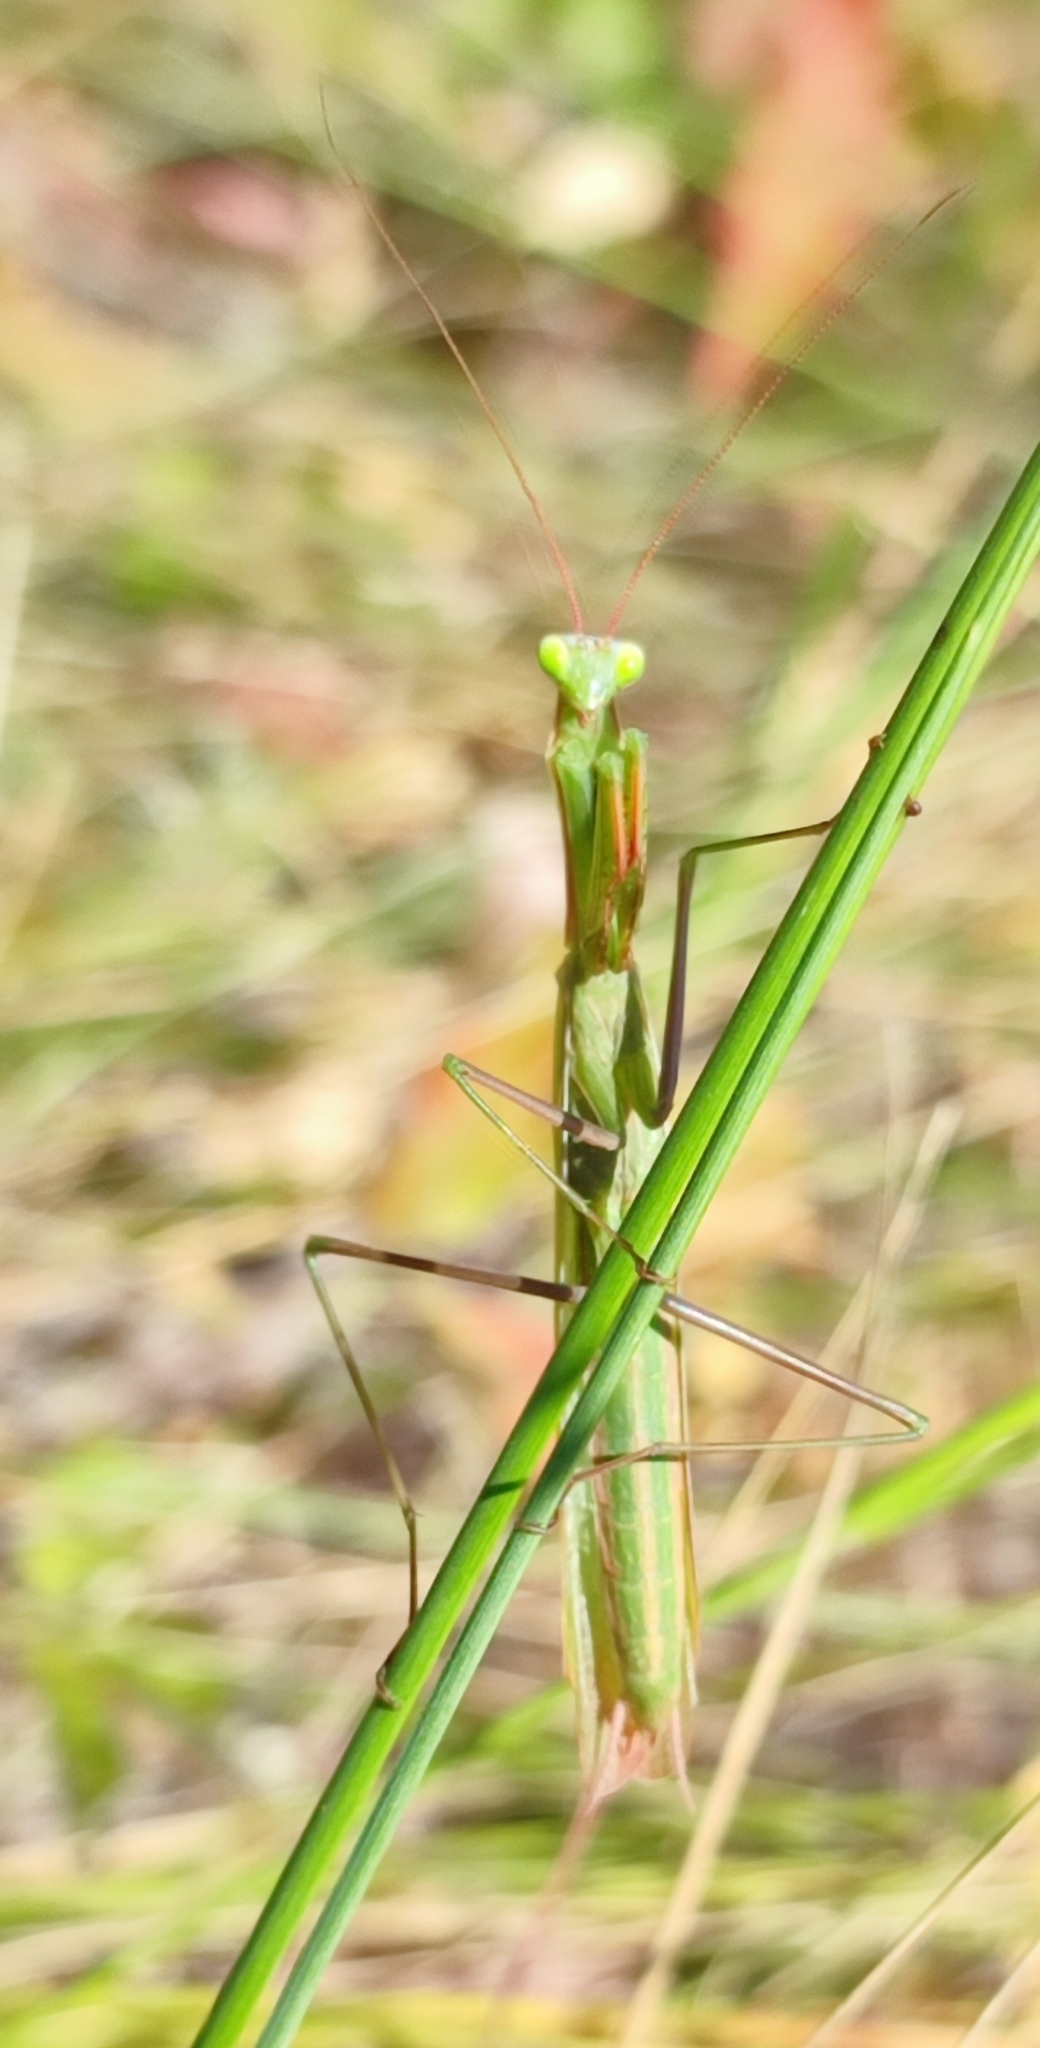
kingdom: Animalia
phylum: Arthropoda
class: Insecta
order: Mantodea
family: Mantidae
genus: Mantis
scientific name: Mantis religiosa
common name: Praying mantis
